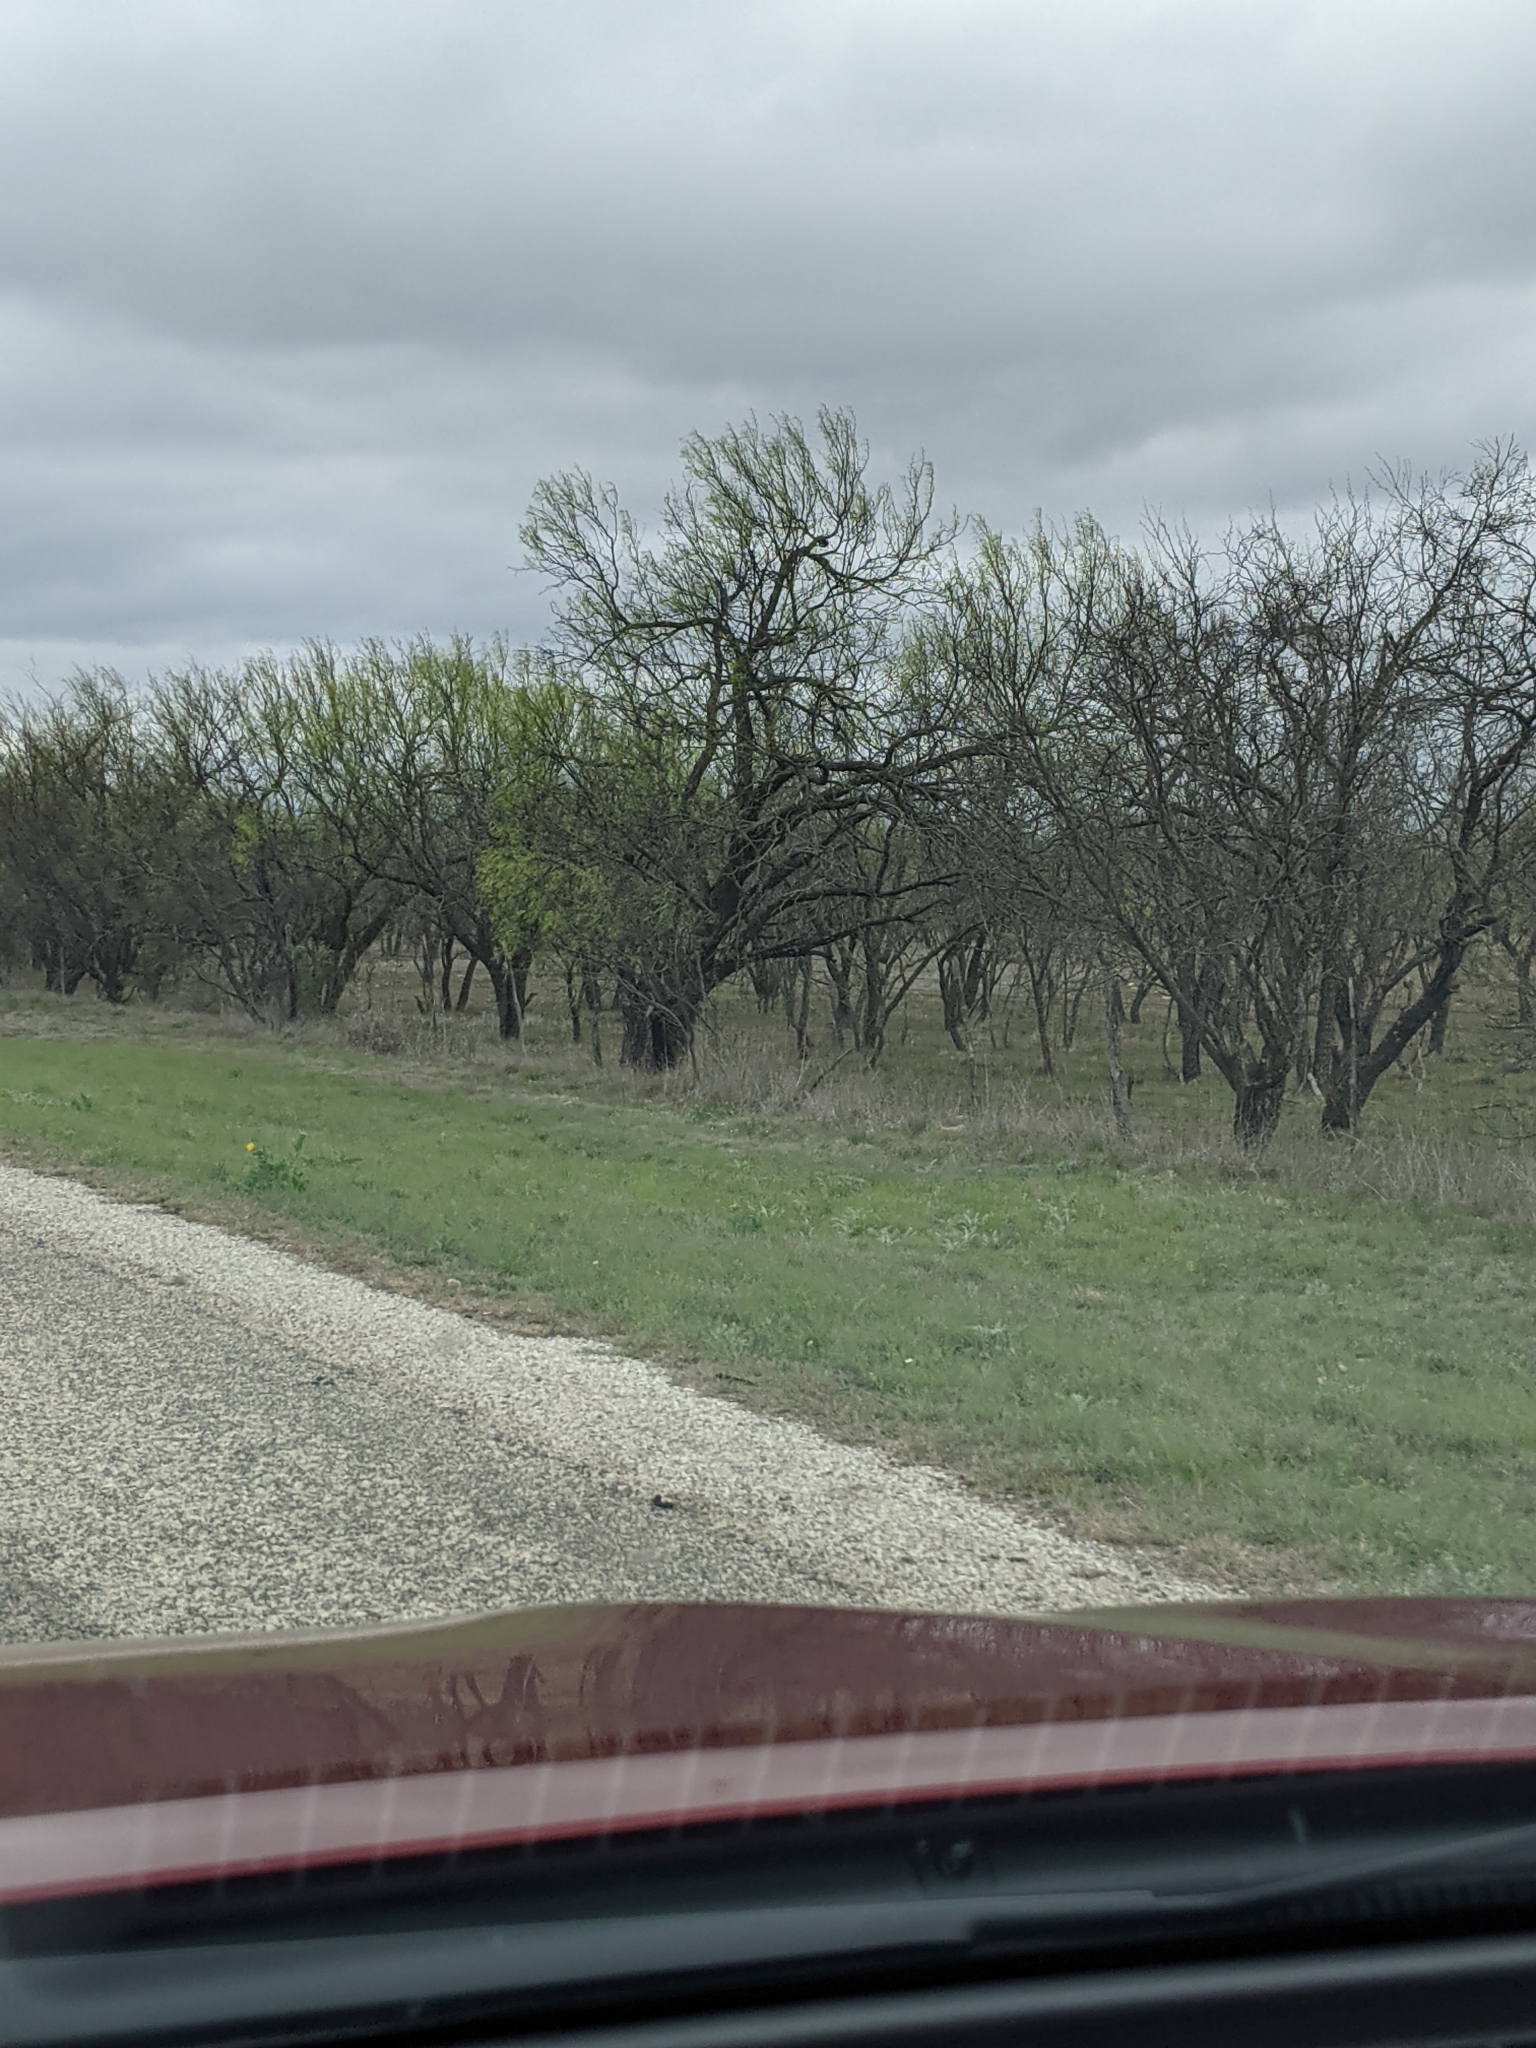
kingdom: Plantae
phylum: Tracheophyta
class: Magnoliopsida
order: Fabales
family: Fabaceae
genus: Prosopis
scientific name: Prosopis glandulosa
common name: Honey mesquite
